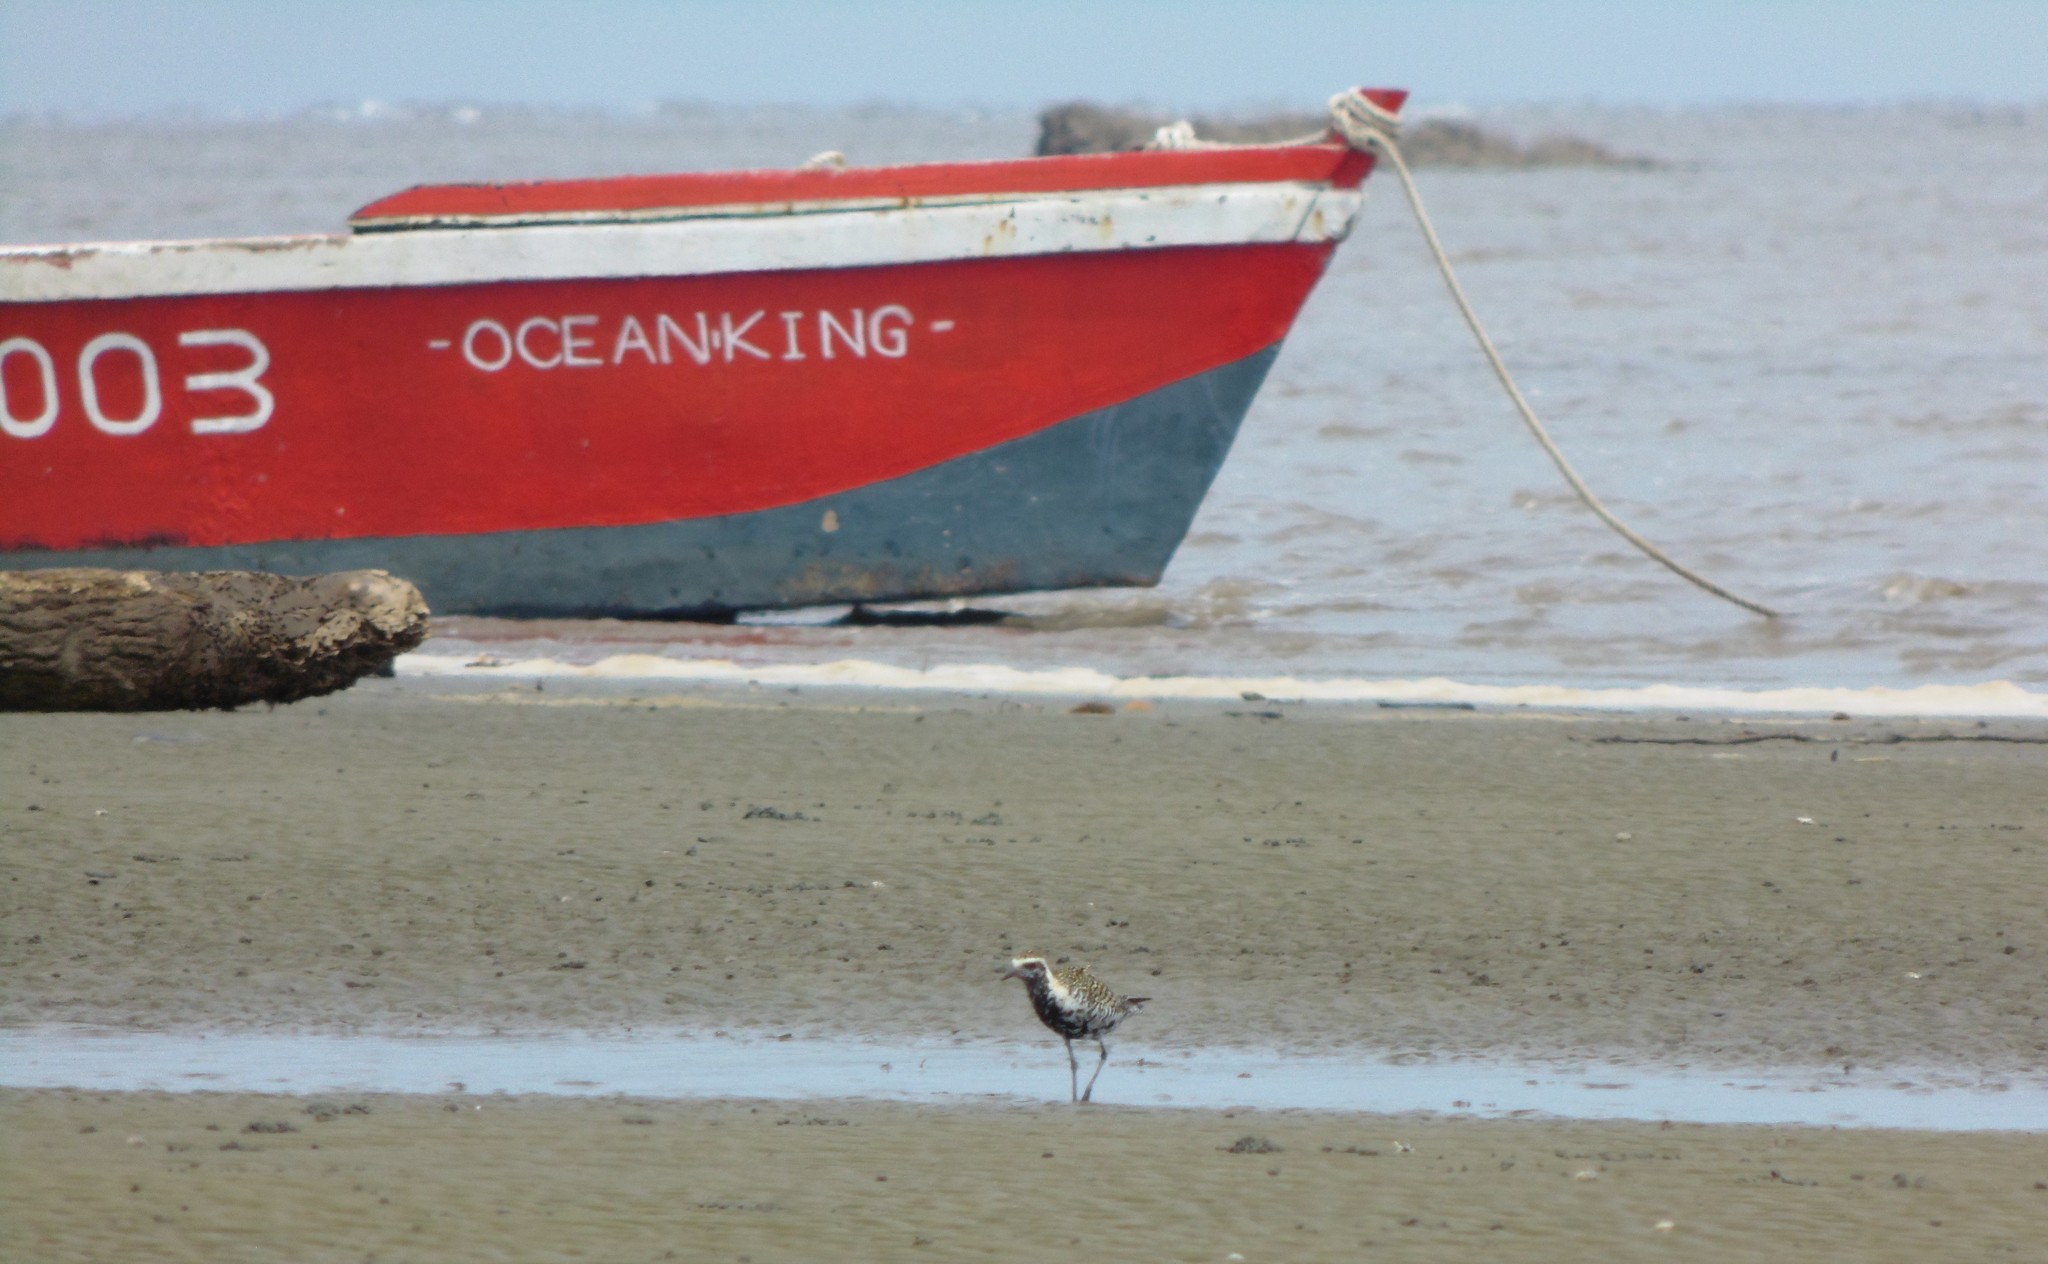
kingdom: Animalia
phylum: Chordata
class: Aves
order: Charadriiformes
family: Charadriidae
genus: Pluvialis
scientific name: Pluvialis fulva
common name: Pacific golden plover
